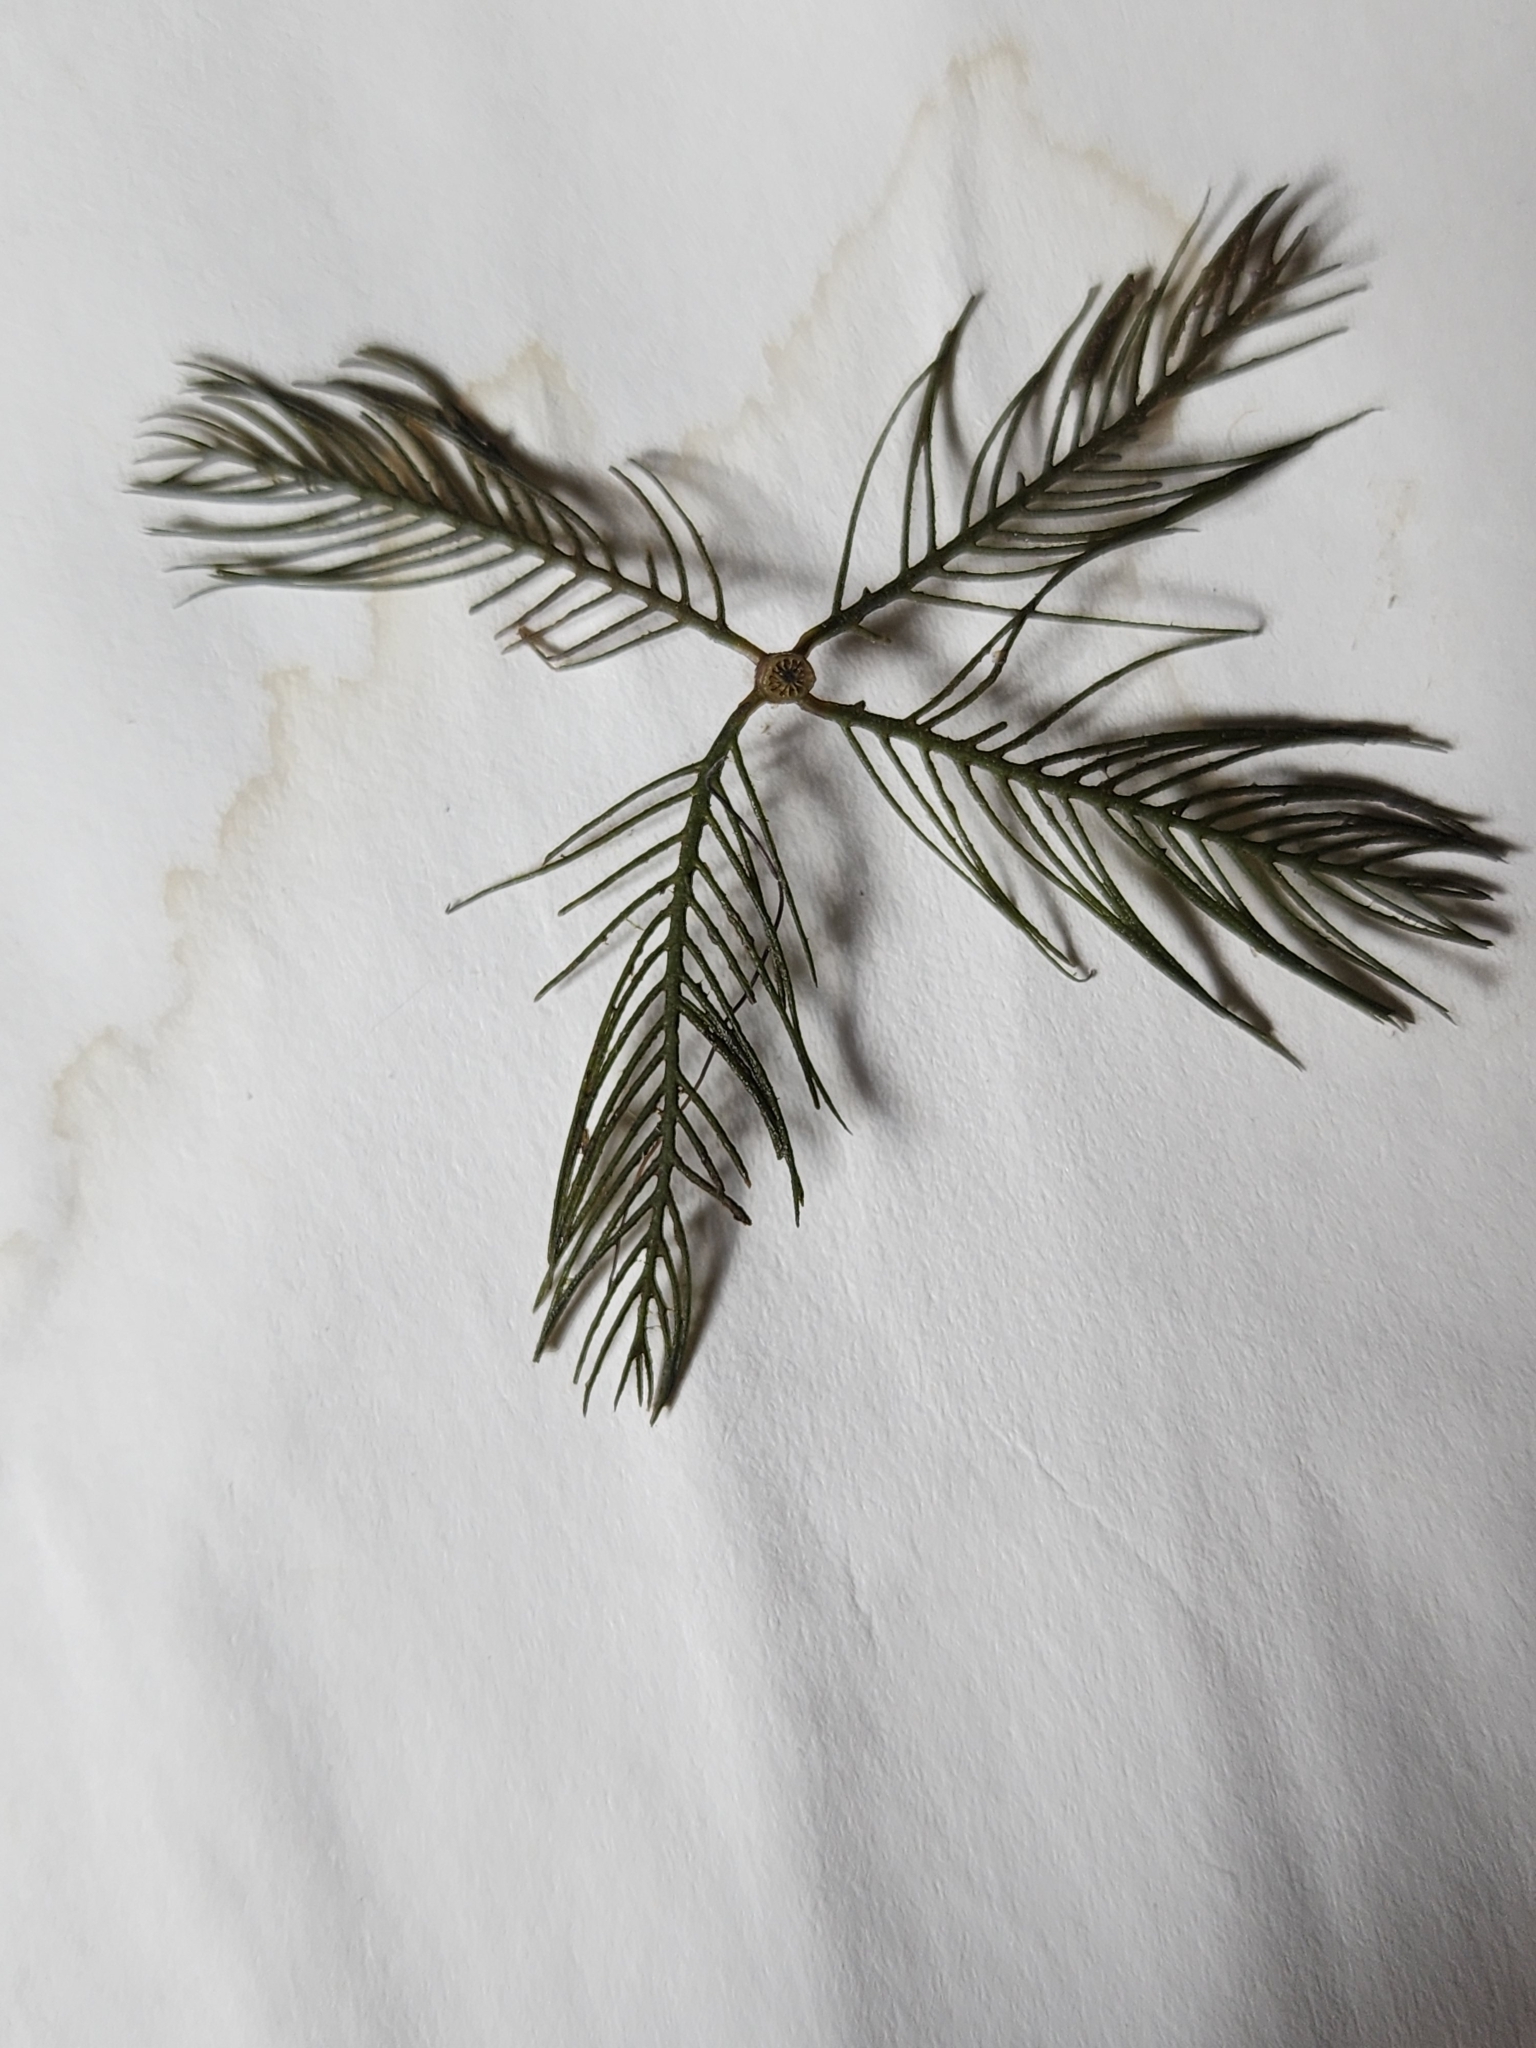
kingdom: Plantae
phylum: Tracheophyta
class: Magnoliopsida
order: Saxifragales
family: Haloragaceae
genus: Myriophyllum
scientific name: Myriophyllum spicatum
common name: Spiked water-milfoil
